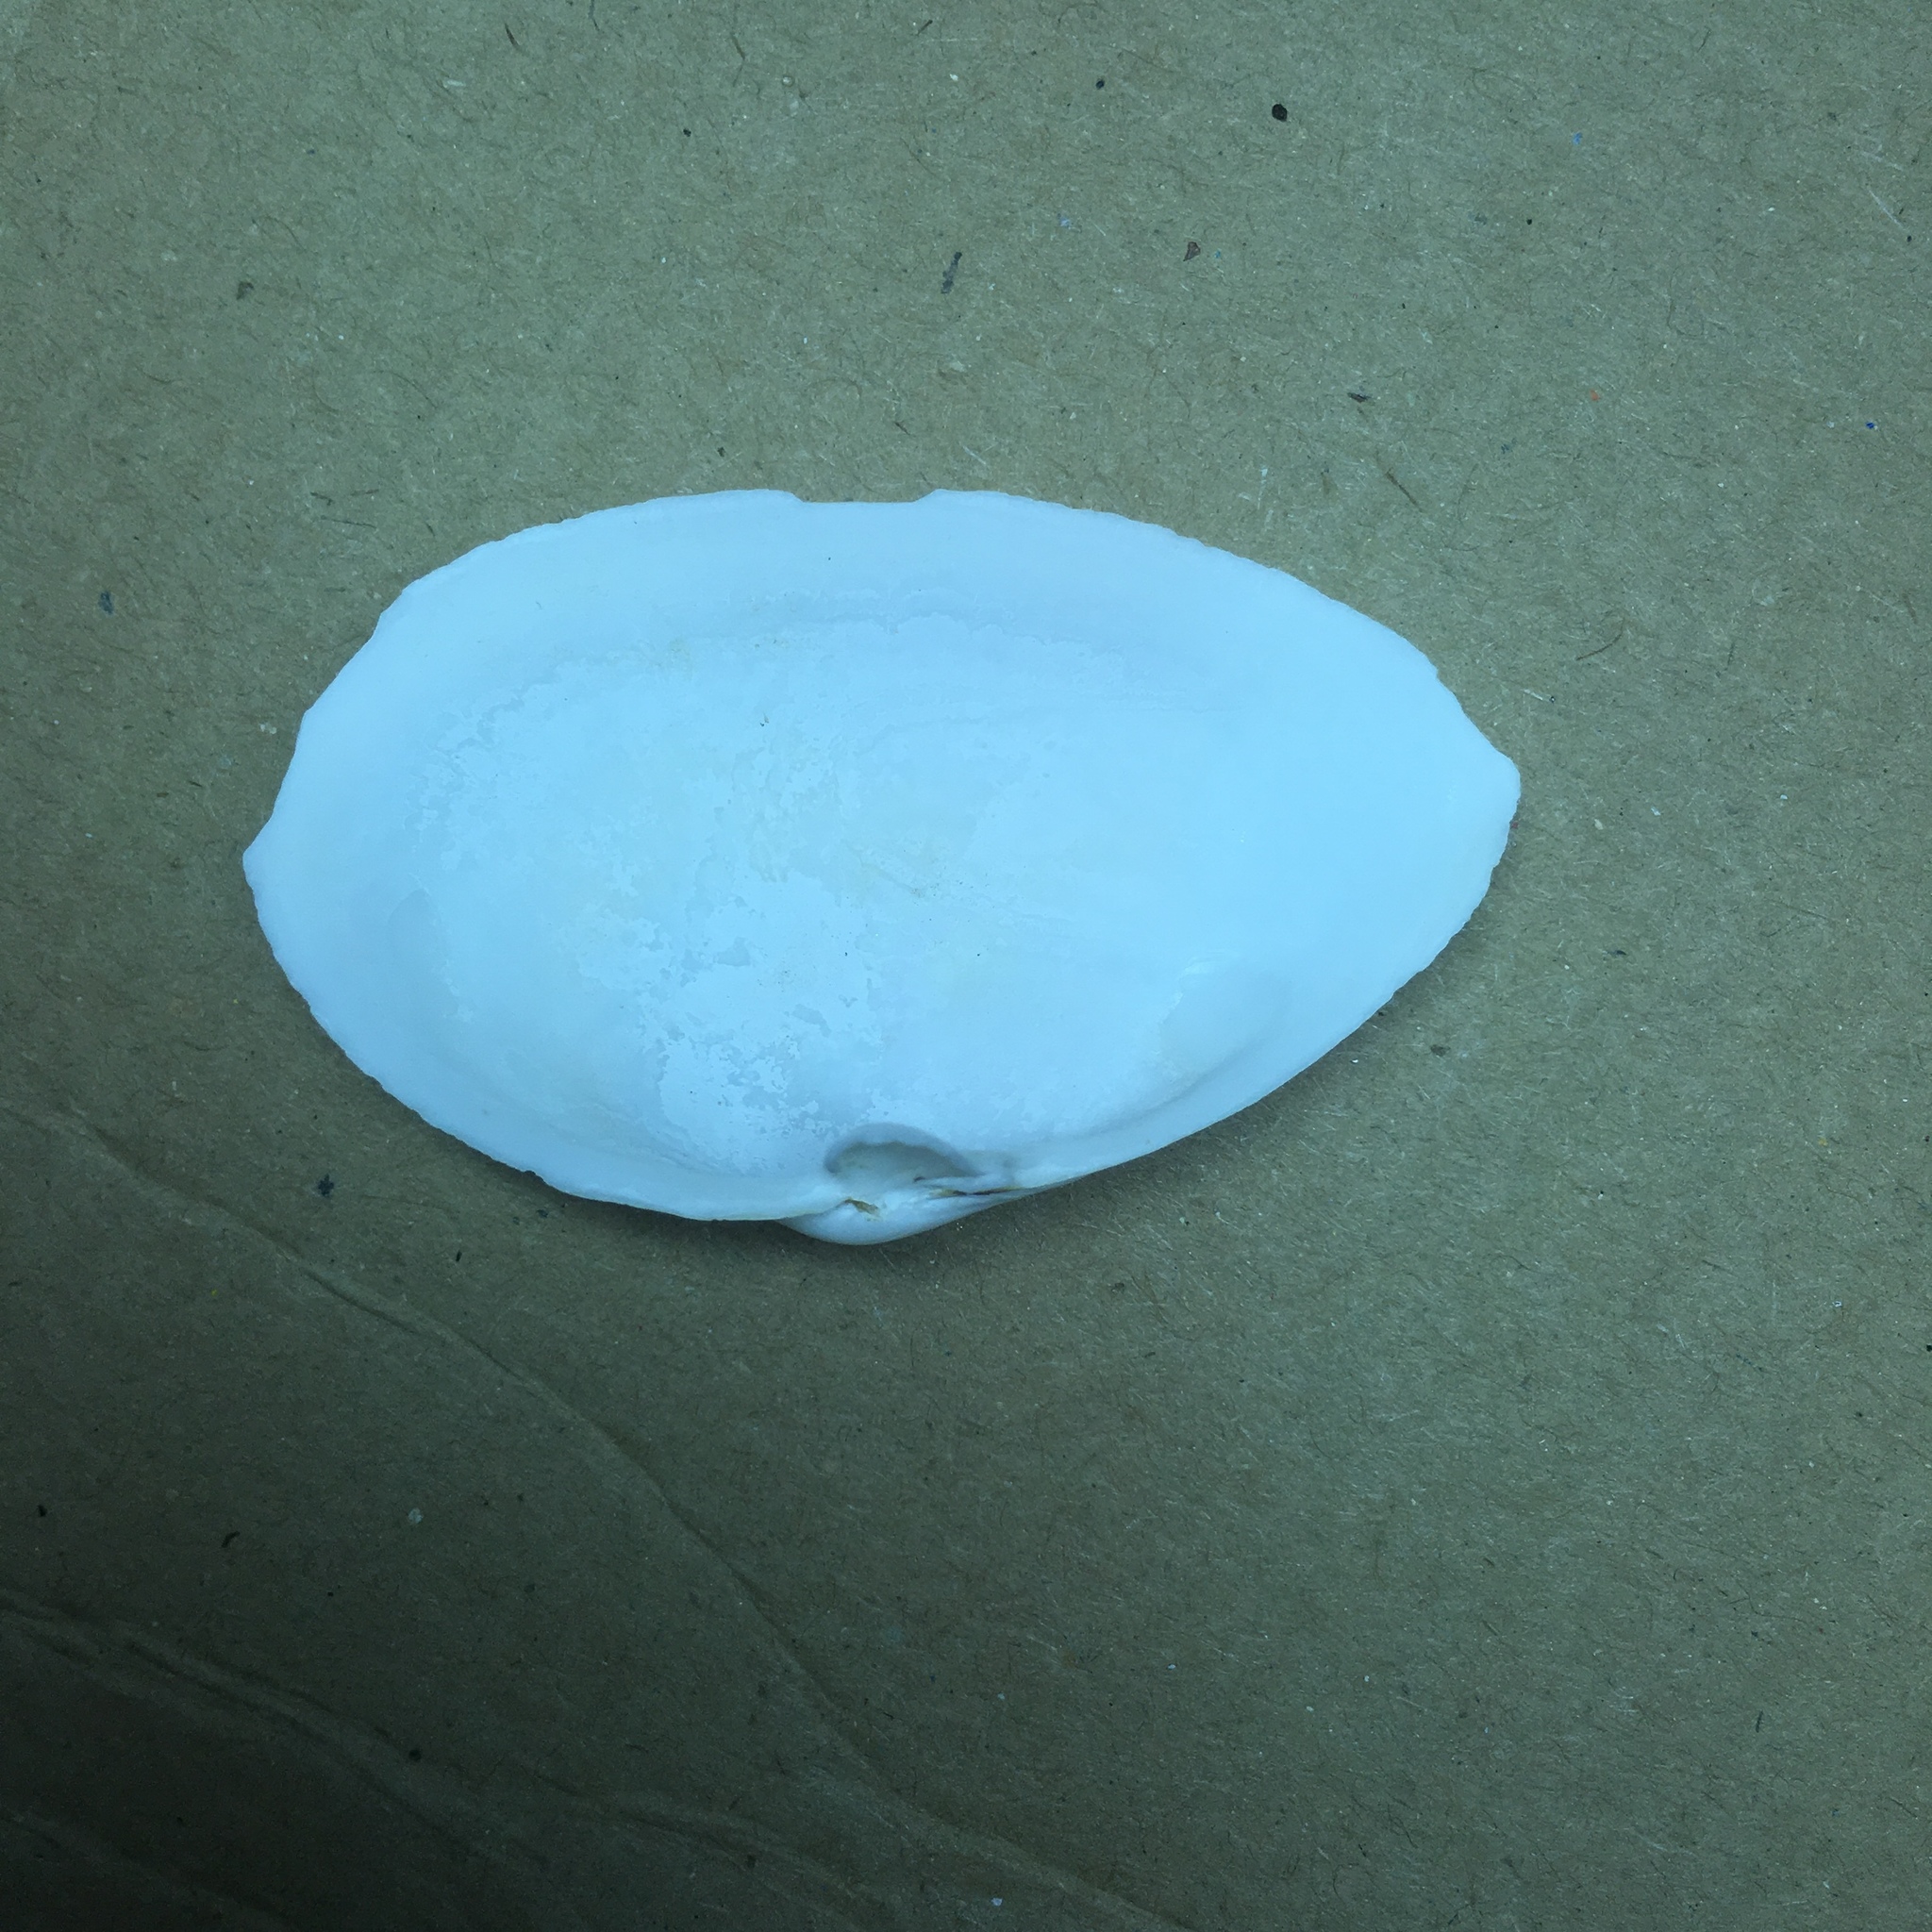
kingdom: Animalia
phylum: Mollusca
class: Bivalvia
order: Myida
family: Myidae
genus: Mya
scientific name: Mya arenaria
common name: Soft-shelled clam
